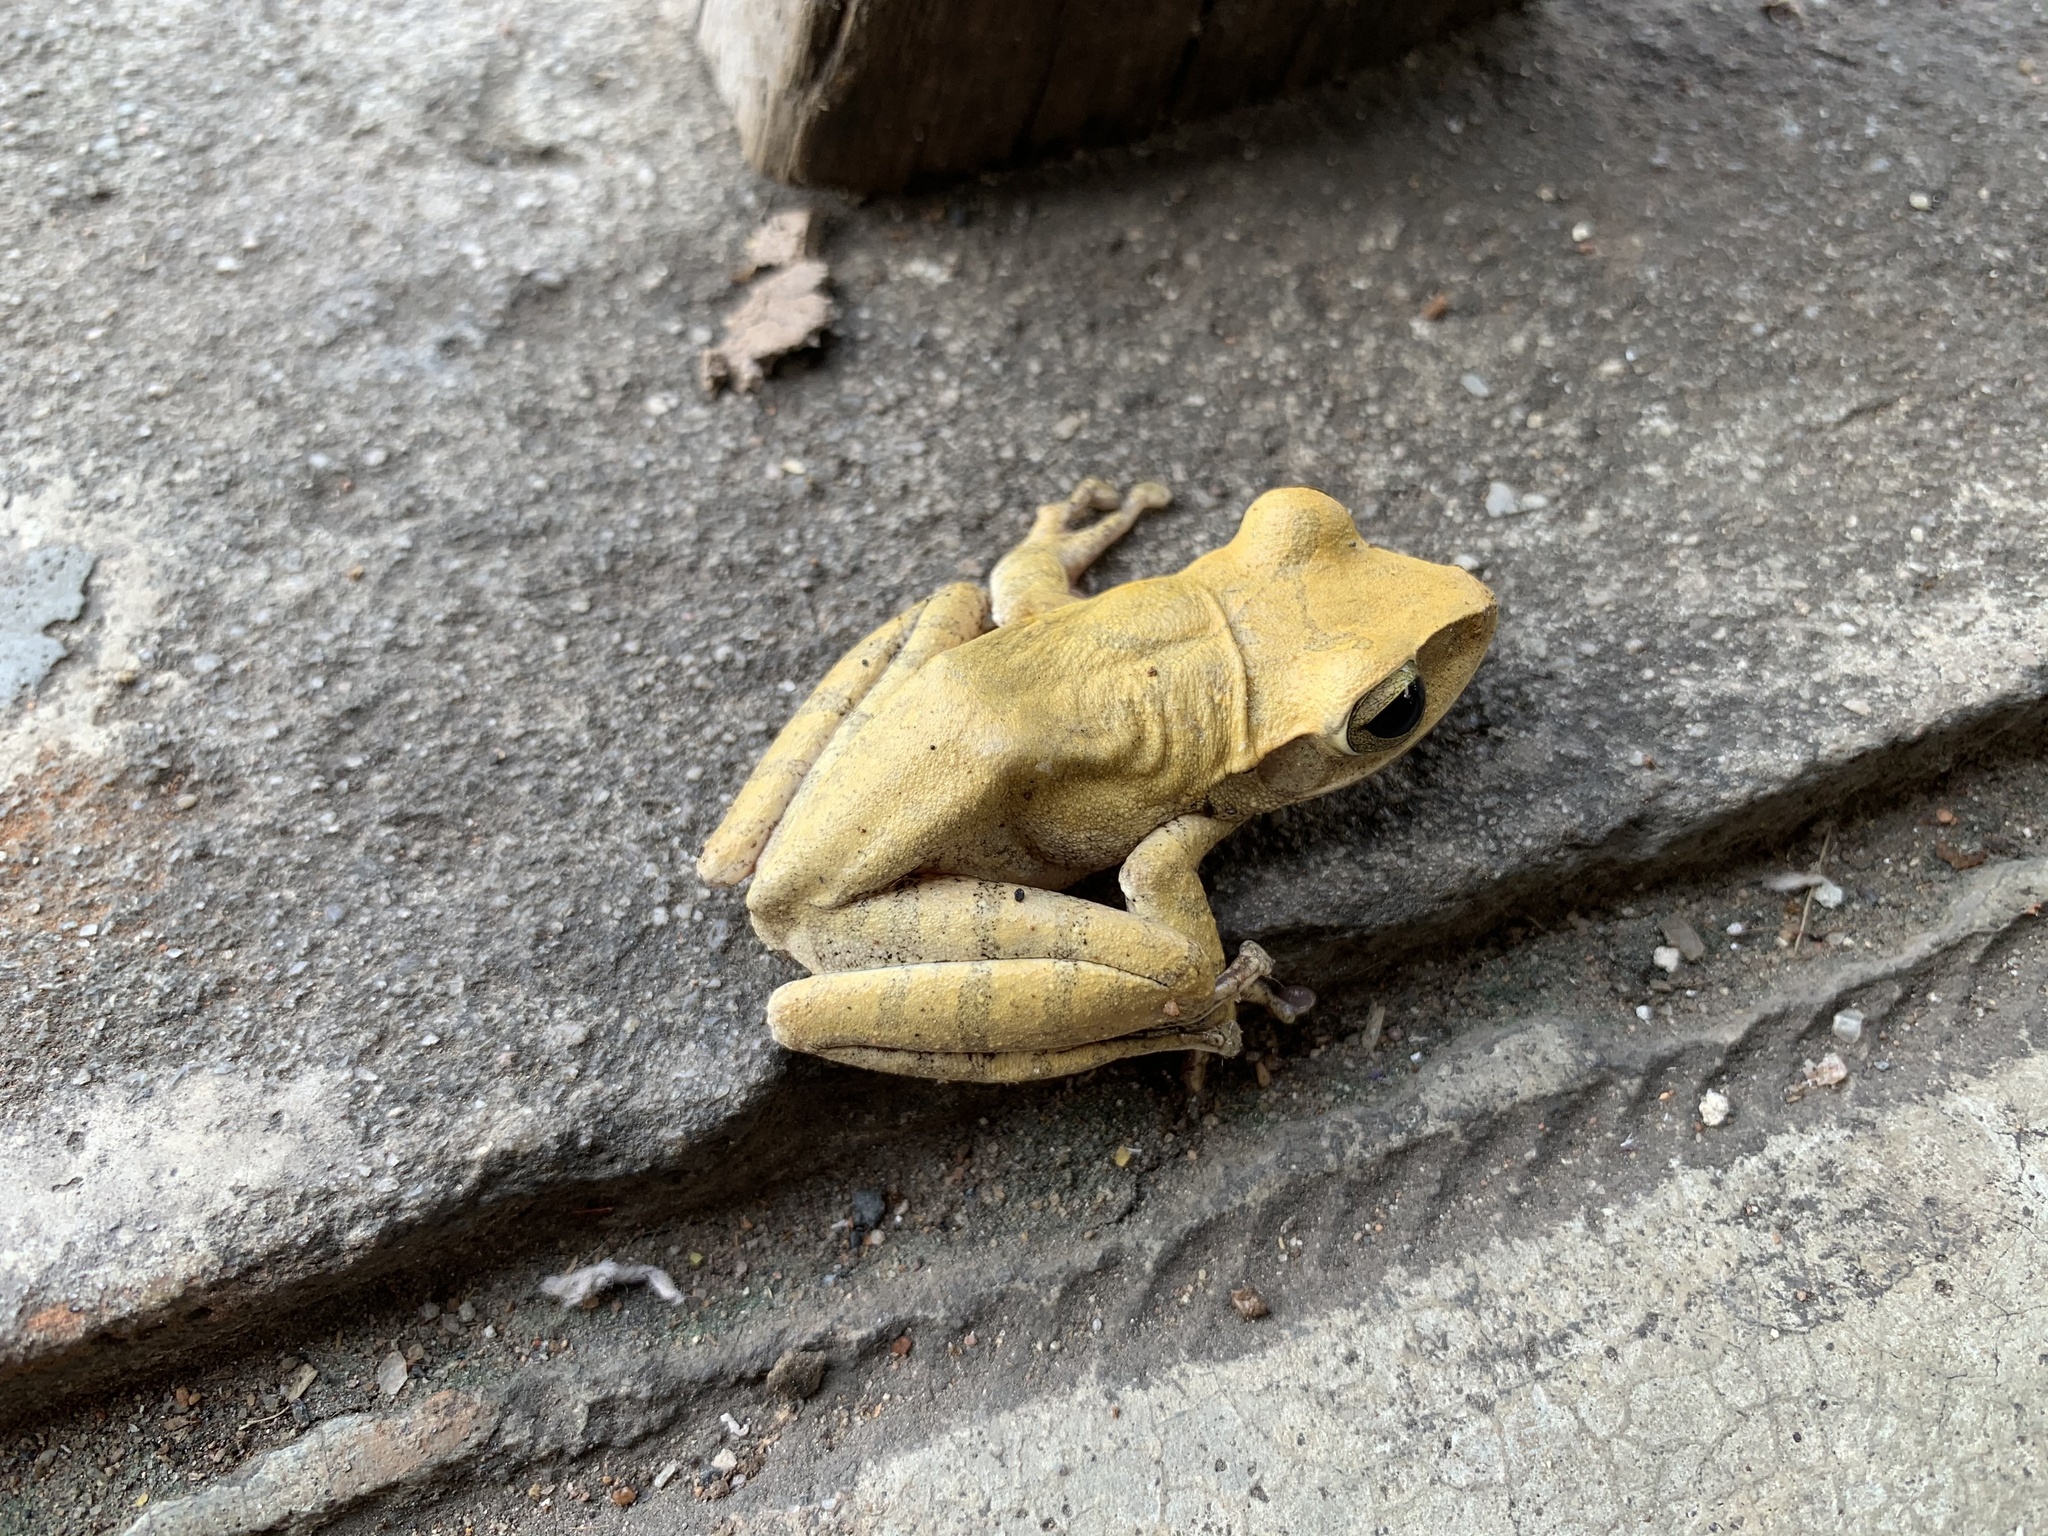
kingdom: Animalia
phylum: Chordata
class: Amphibia
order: Anura
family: Rhacophoridae
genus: Polypedates
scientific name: Polypedates megacephalus
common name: Hong kong whipping frog
